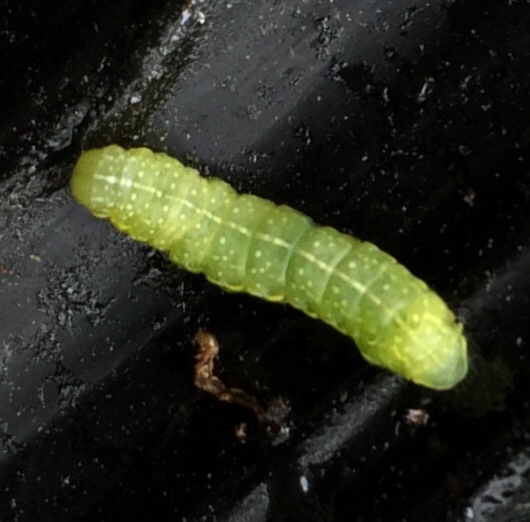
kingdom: Animalia
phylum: Arthropoda
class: Insecta
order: Lepidoptera
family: Noctuidae
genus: Amphipyra
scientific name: Amphipyra pyramidoides
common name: American copper underwing
